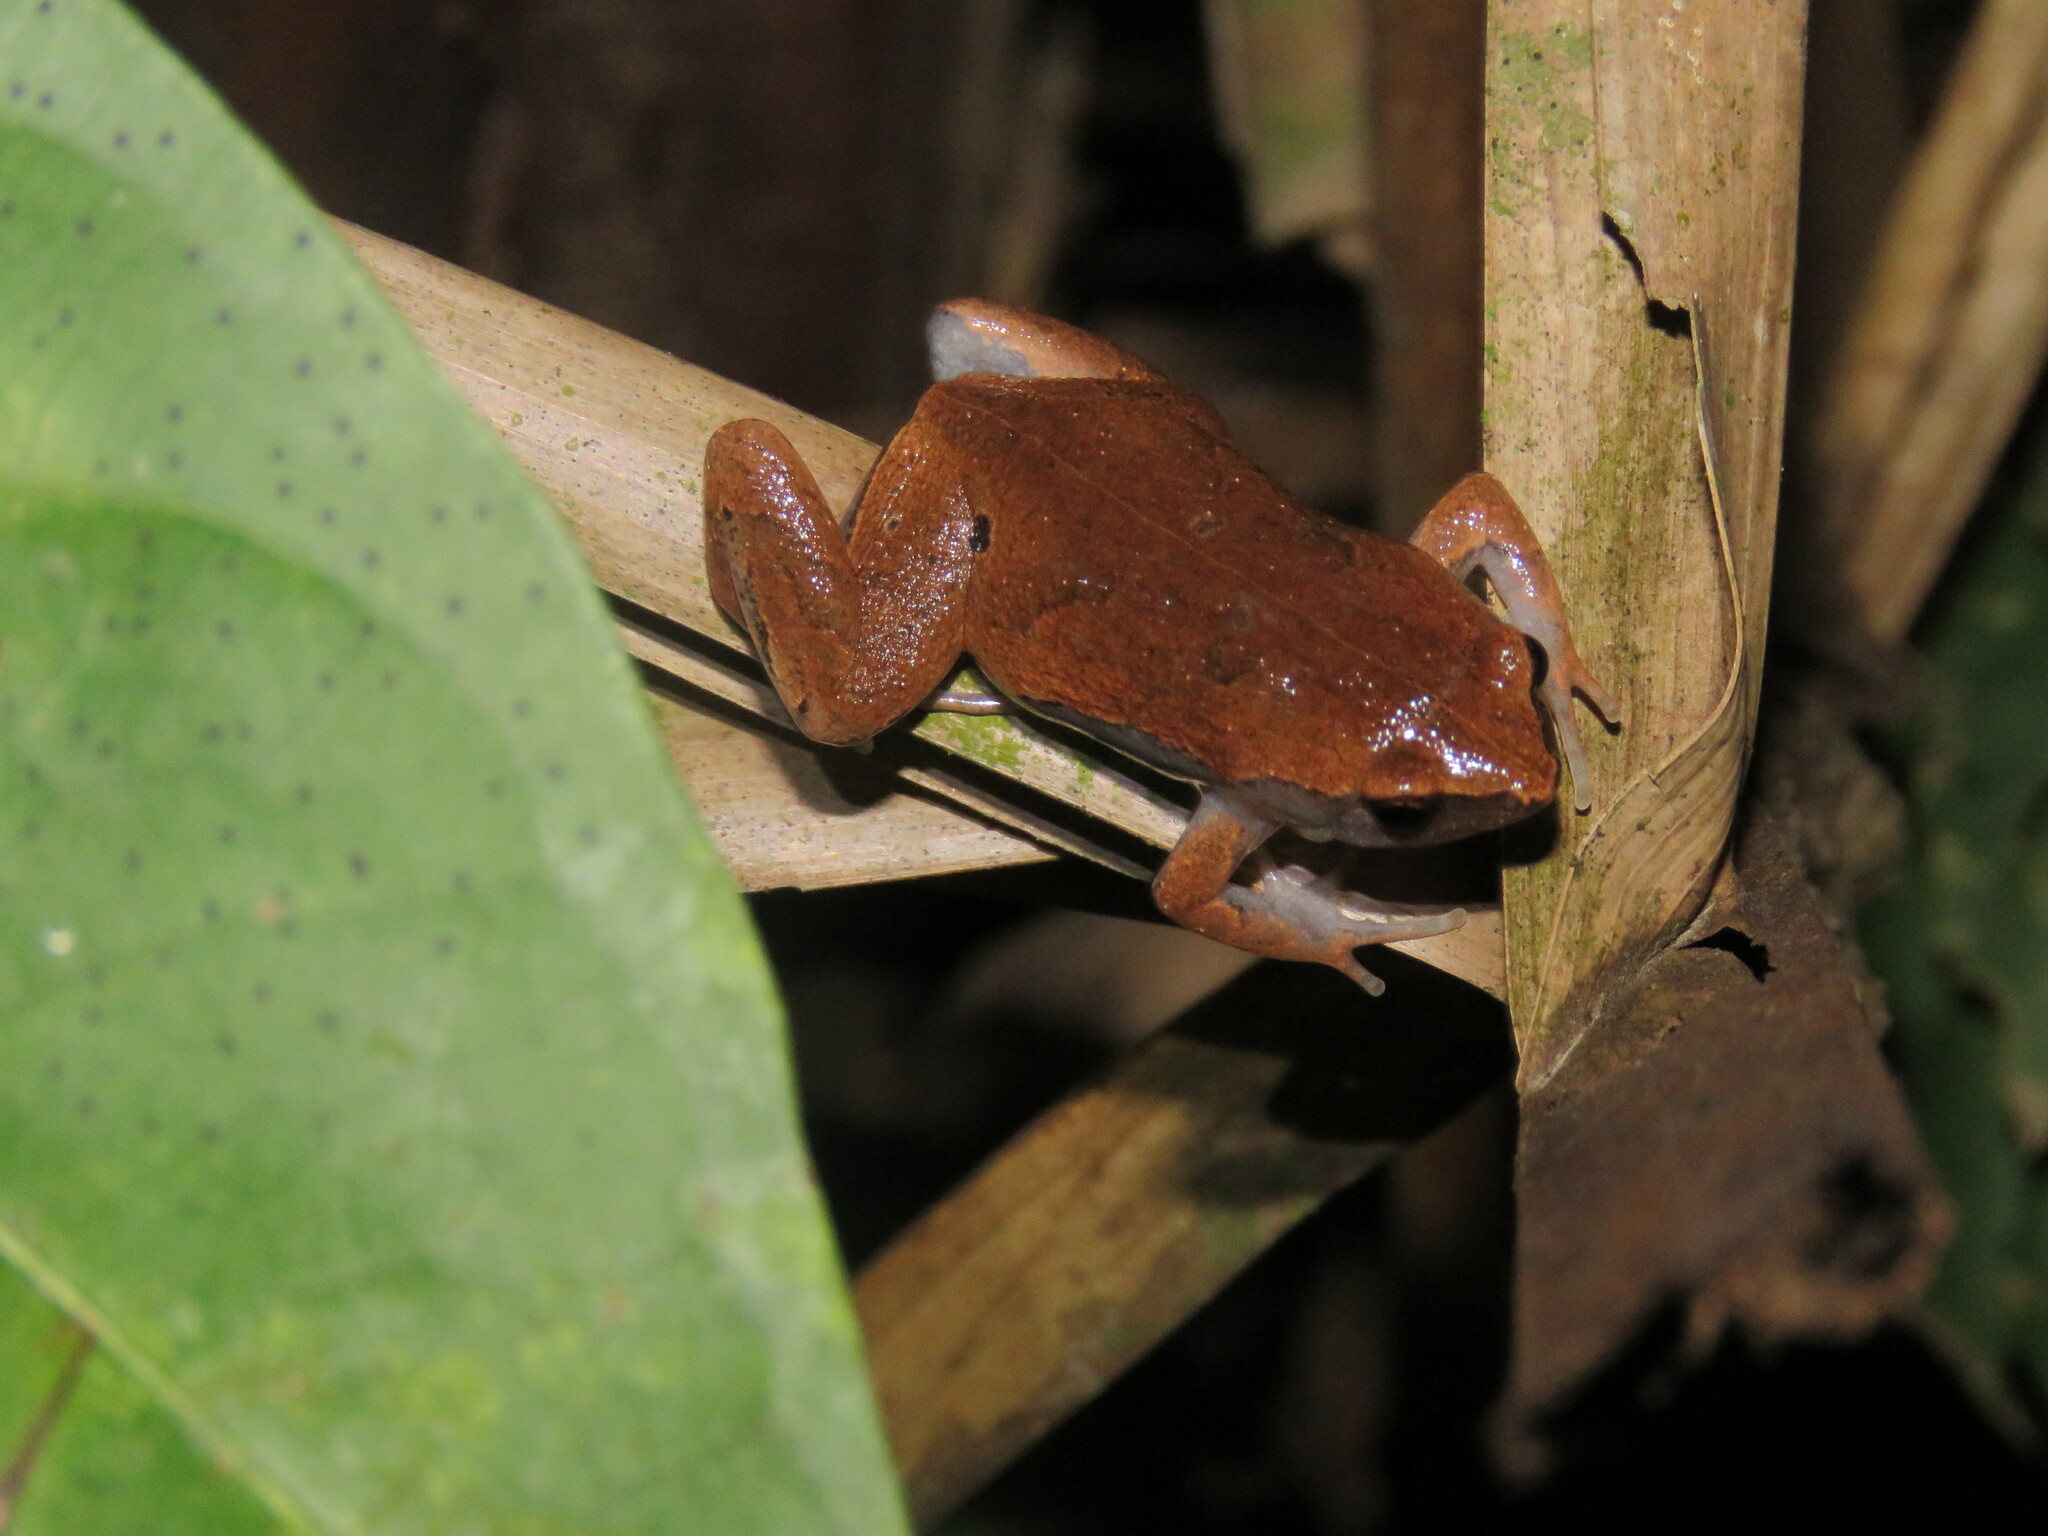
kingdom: Animalia
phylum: Chordata
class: Amphibia
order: Anura
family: Microhylidae
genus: Hamptophryne
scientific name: Hamptophryne boliviana
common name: Bolivian bleating frog
